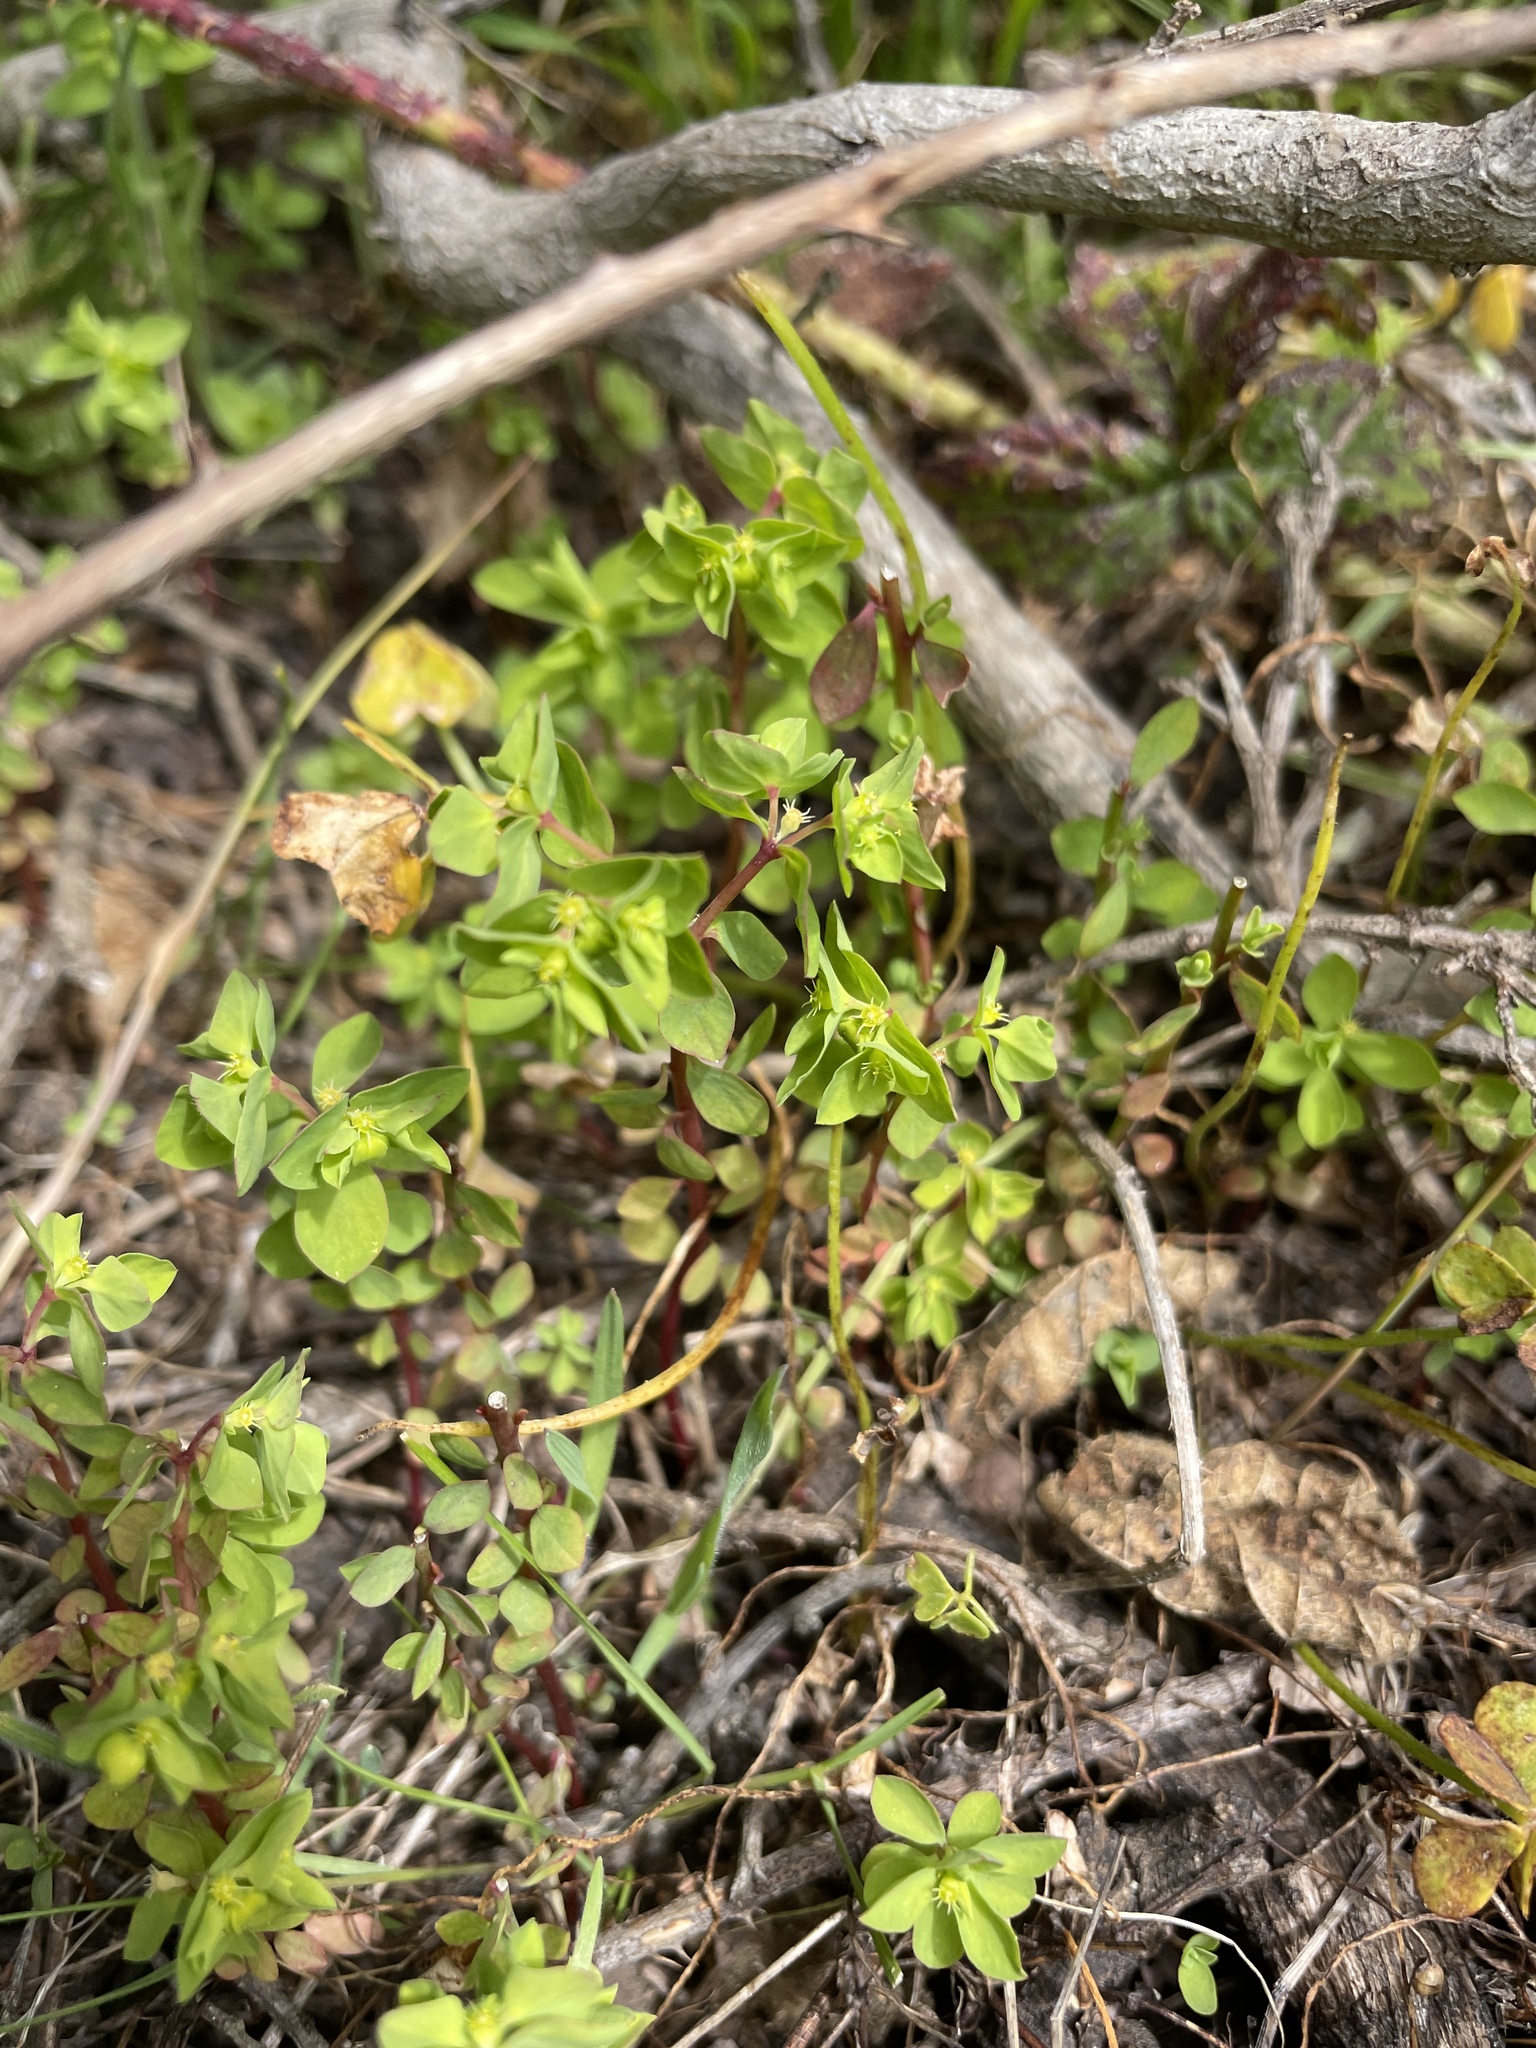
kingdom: Plantae
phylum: Tracheophyta
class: Magnoliopsida
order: Malpighiales
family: Euphorbiaceae
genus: Euphorbia
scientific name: Euphorbia peplus
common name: Petty spurge
